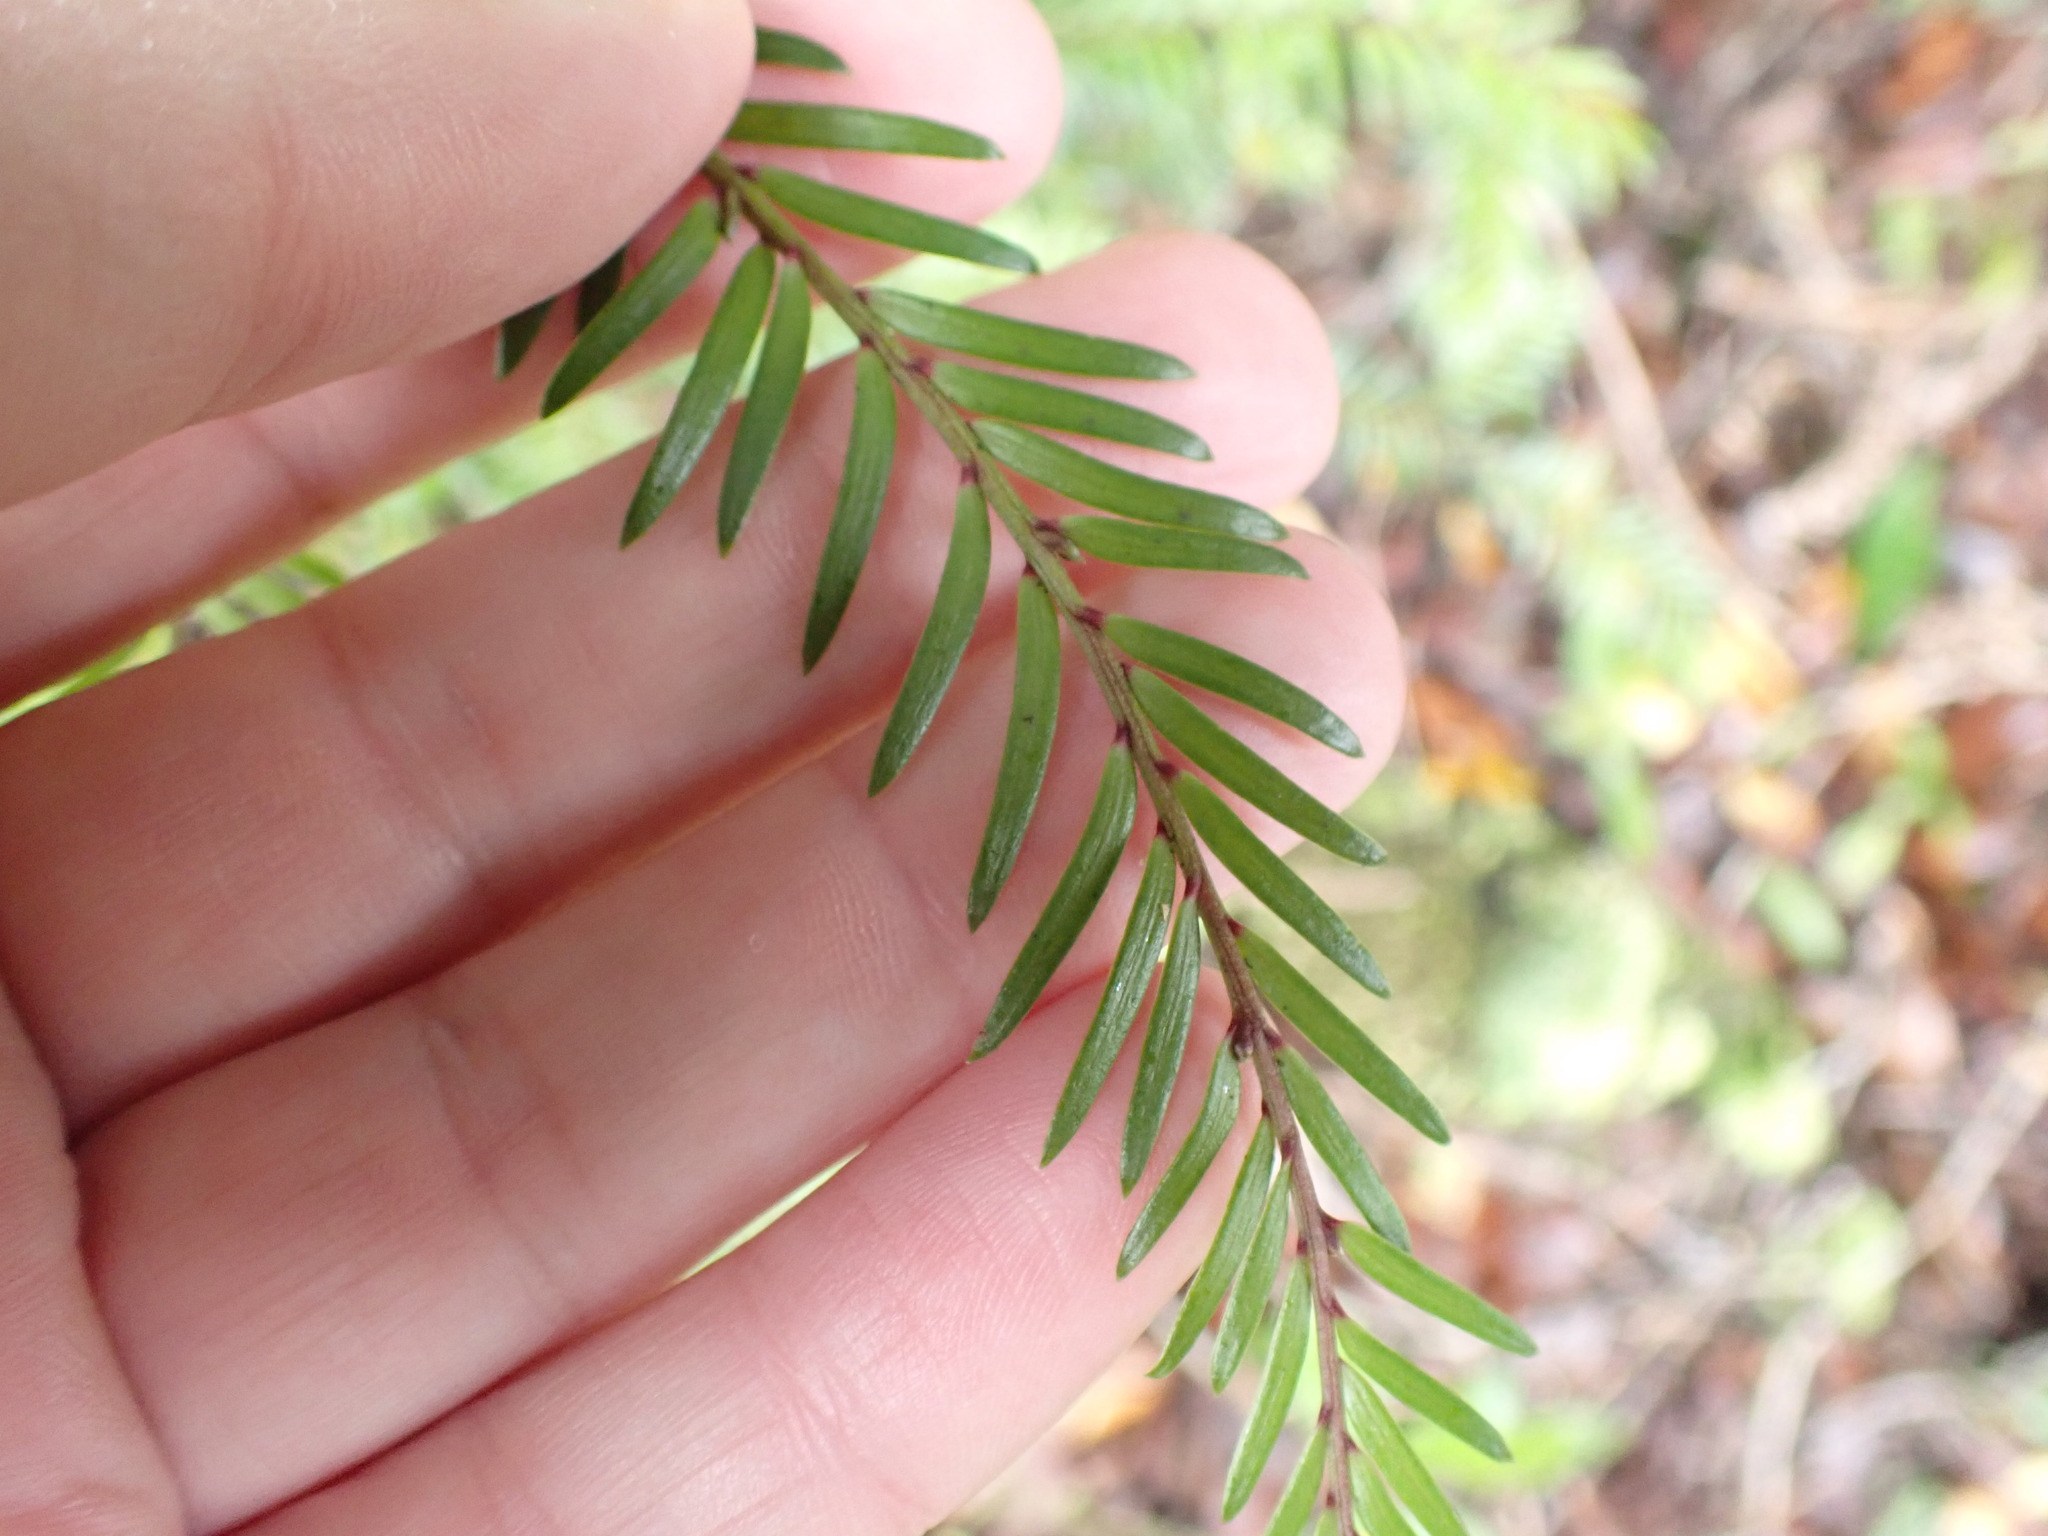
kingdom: Plantae
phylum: Tracheophyta
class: Pinopsida
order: Pinales
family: Podocarpaceae
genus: Prumnopitys
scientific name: Prumnopitys ferruginea
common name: Brown pine
